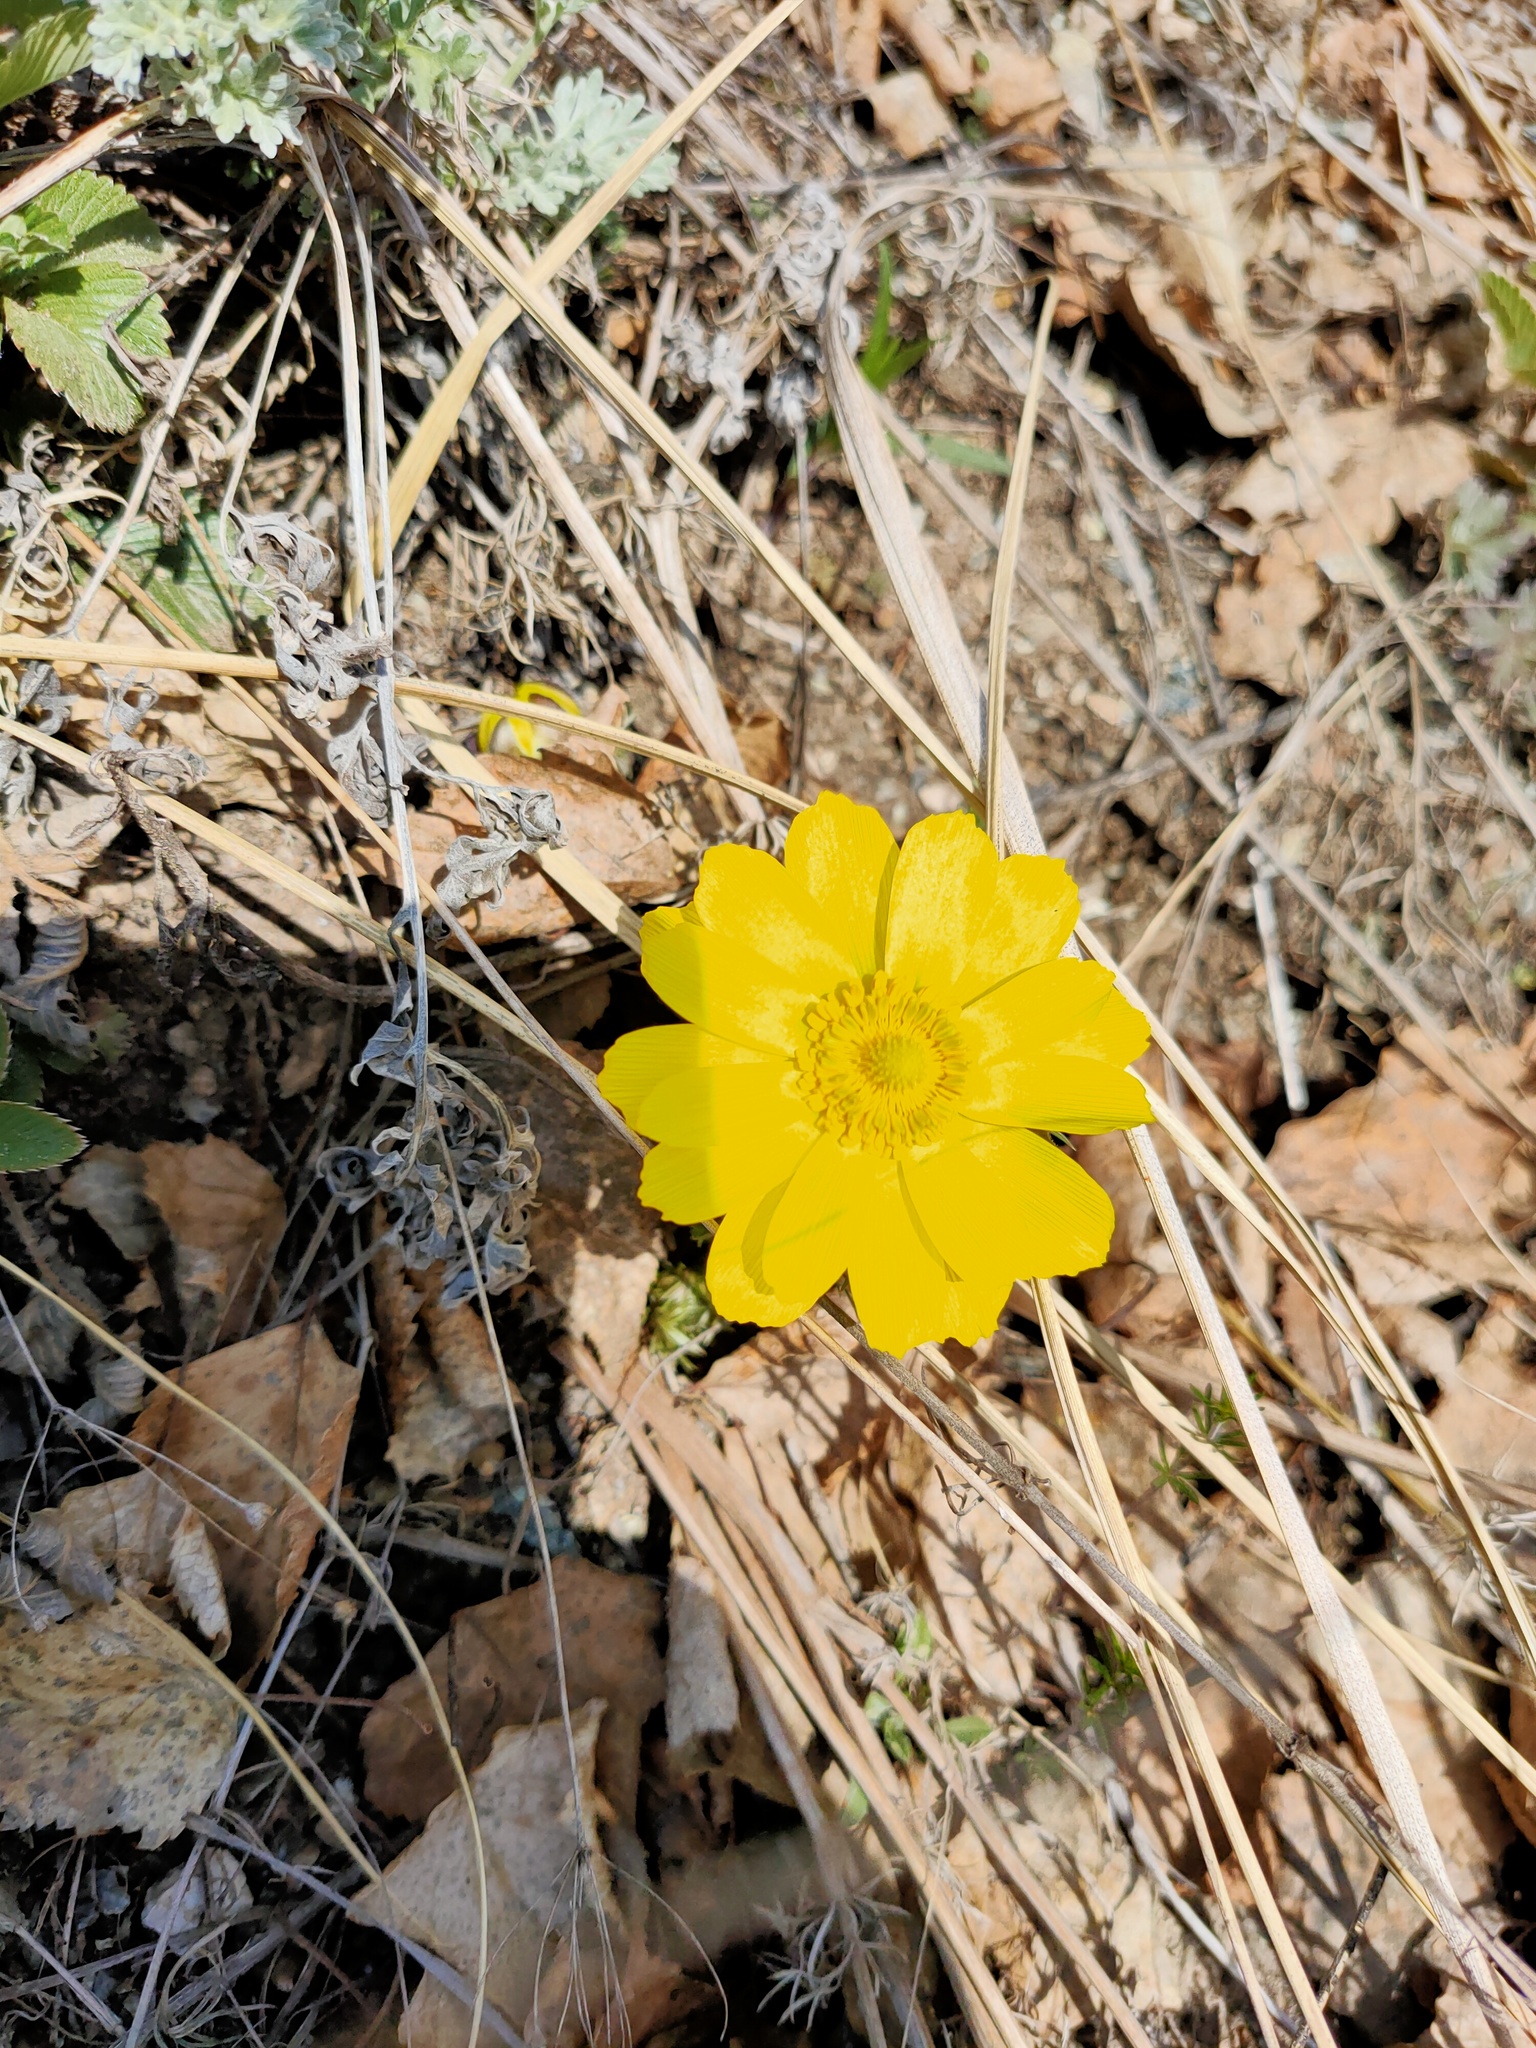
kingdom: Plantae
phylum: Tracheophyta
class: Magnoliopsida
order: Ranunculales
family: Ranunculaceae
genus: Adonis
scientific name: Adonis vernalis
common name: Yellow pheasants-eye
